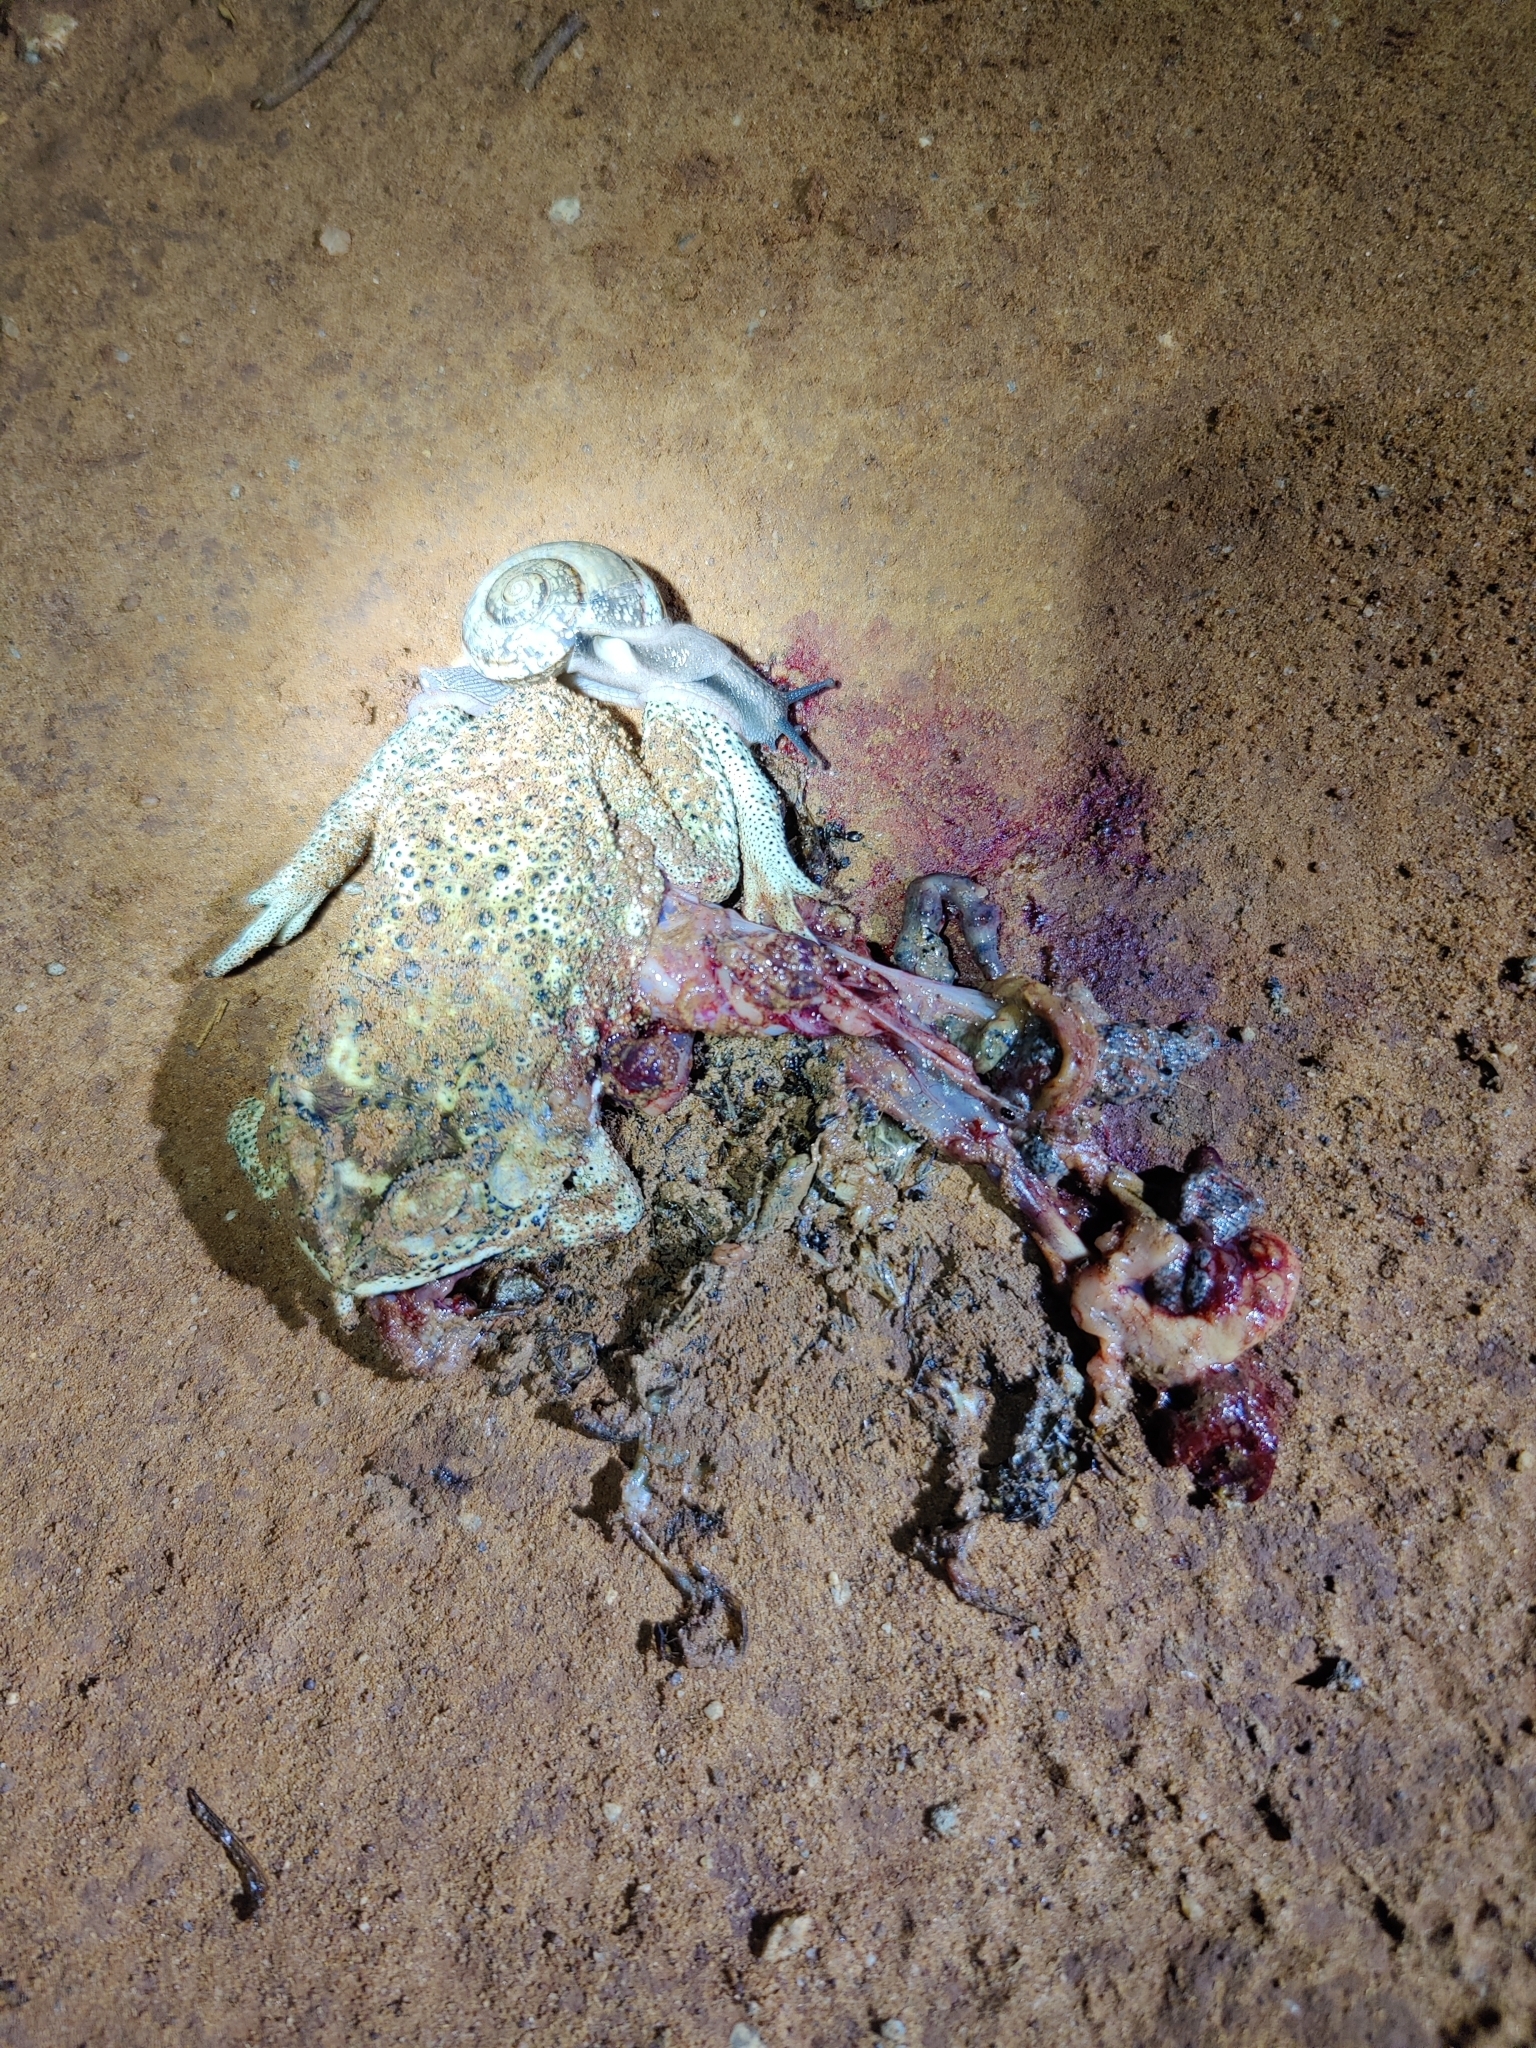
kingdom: Animalia
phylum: Chordata
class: Amphibia
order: Anura
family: Bufonidae
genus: Duttaphrynus
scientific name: Duttaphrynus melanostictus
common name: Common sunda toad
